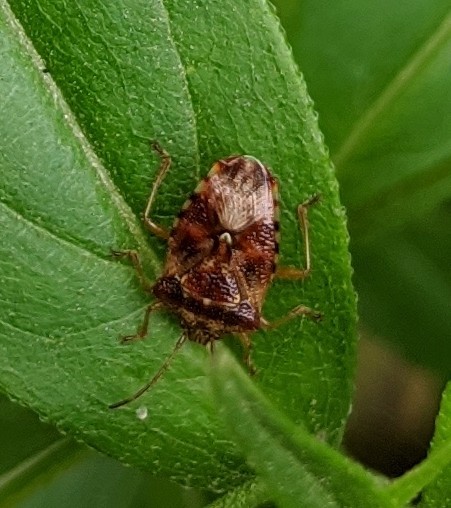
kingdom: Animalia
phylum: Arthropoda
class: Insecta
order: Hemiptera
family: Acanthosomatidae
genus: Elasmucha
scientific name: Elasmucha lateralis
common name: Shield bug
